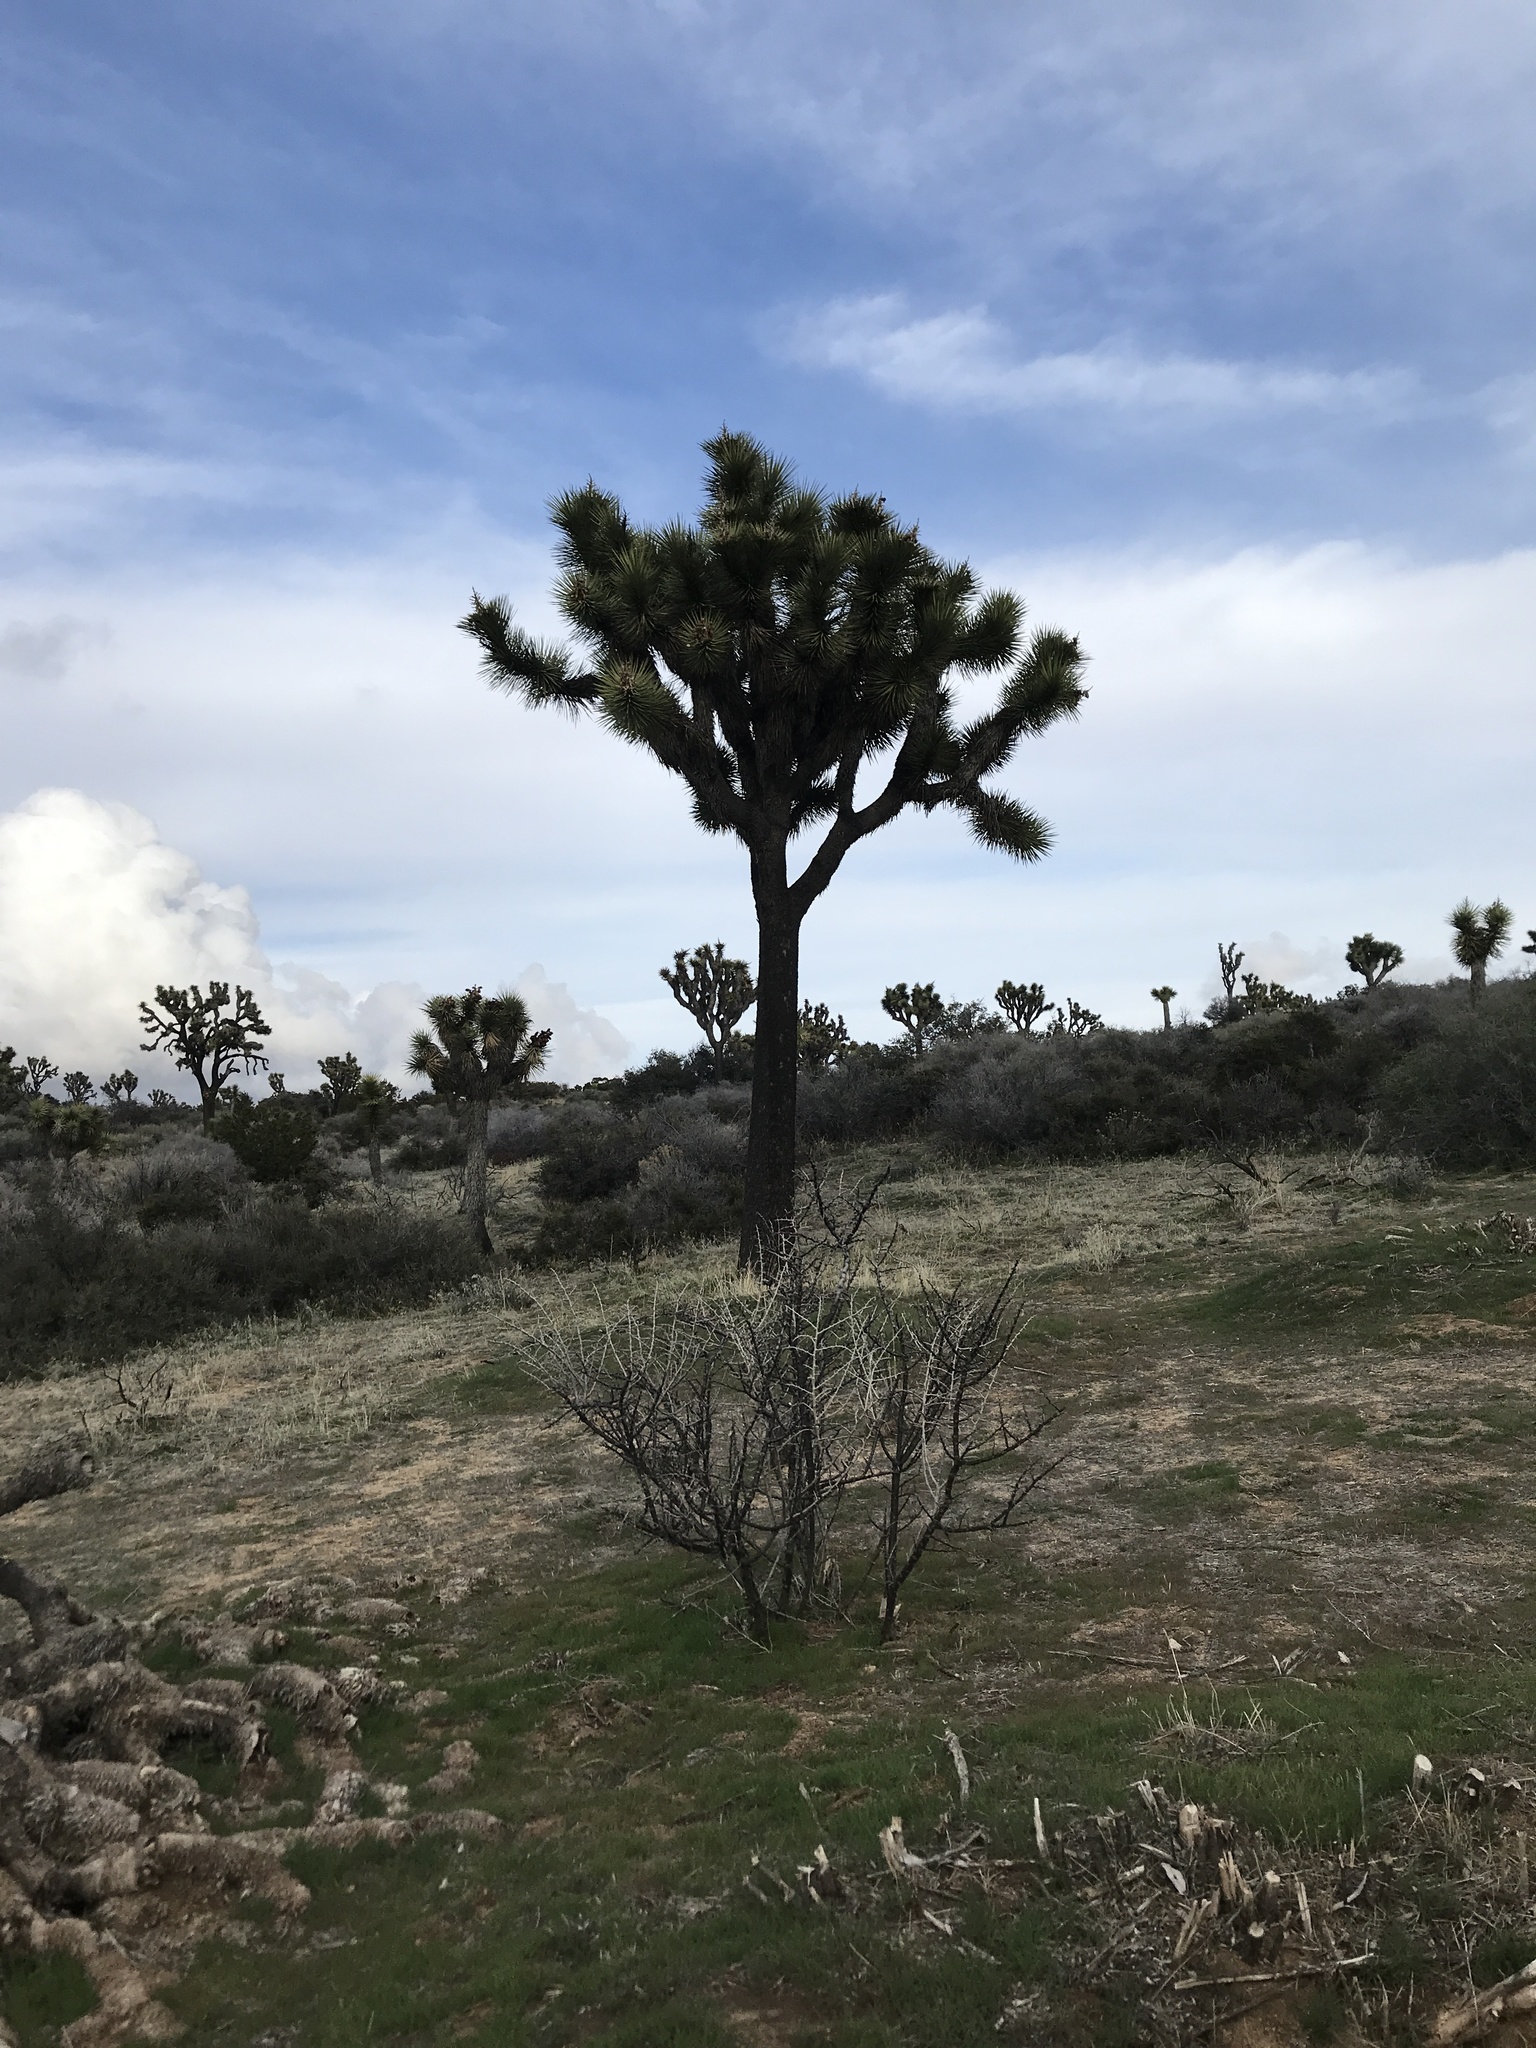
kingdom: Plantae
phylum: Tracheophyta
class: Liliopsida
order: Asparagales
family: Asparagaceae
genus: Yucca
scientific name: Yucca brevifolia
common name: Joshua tree
